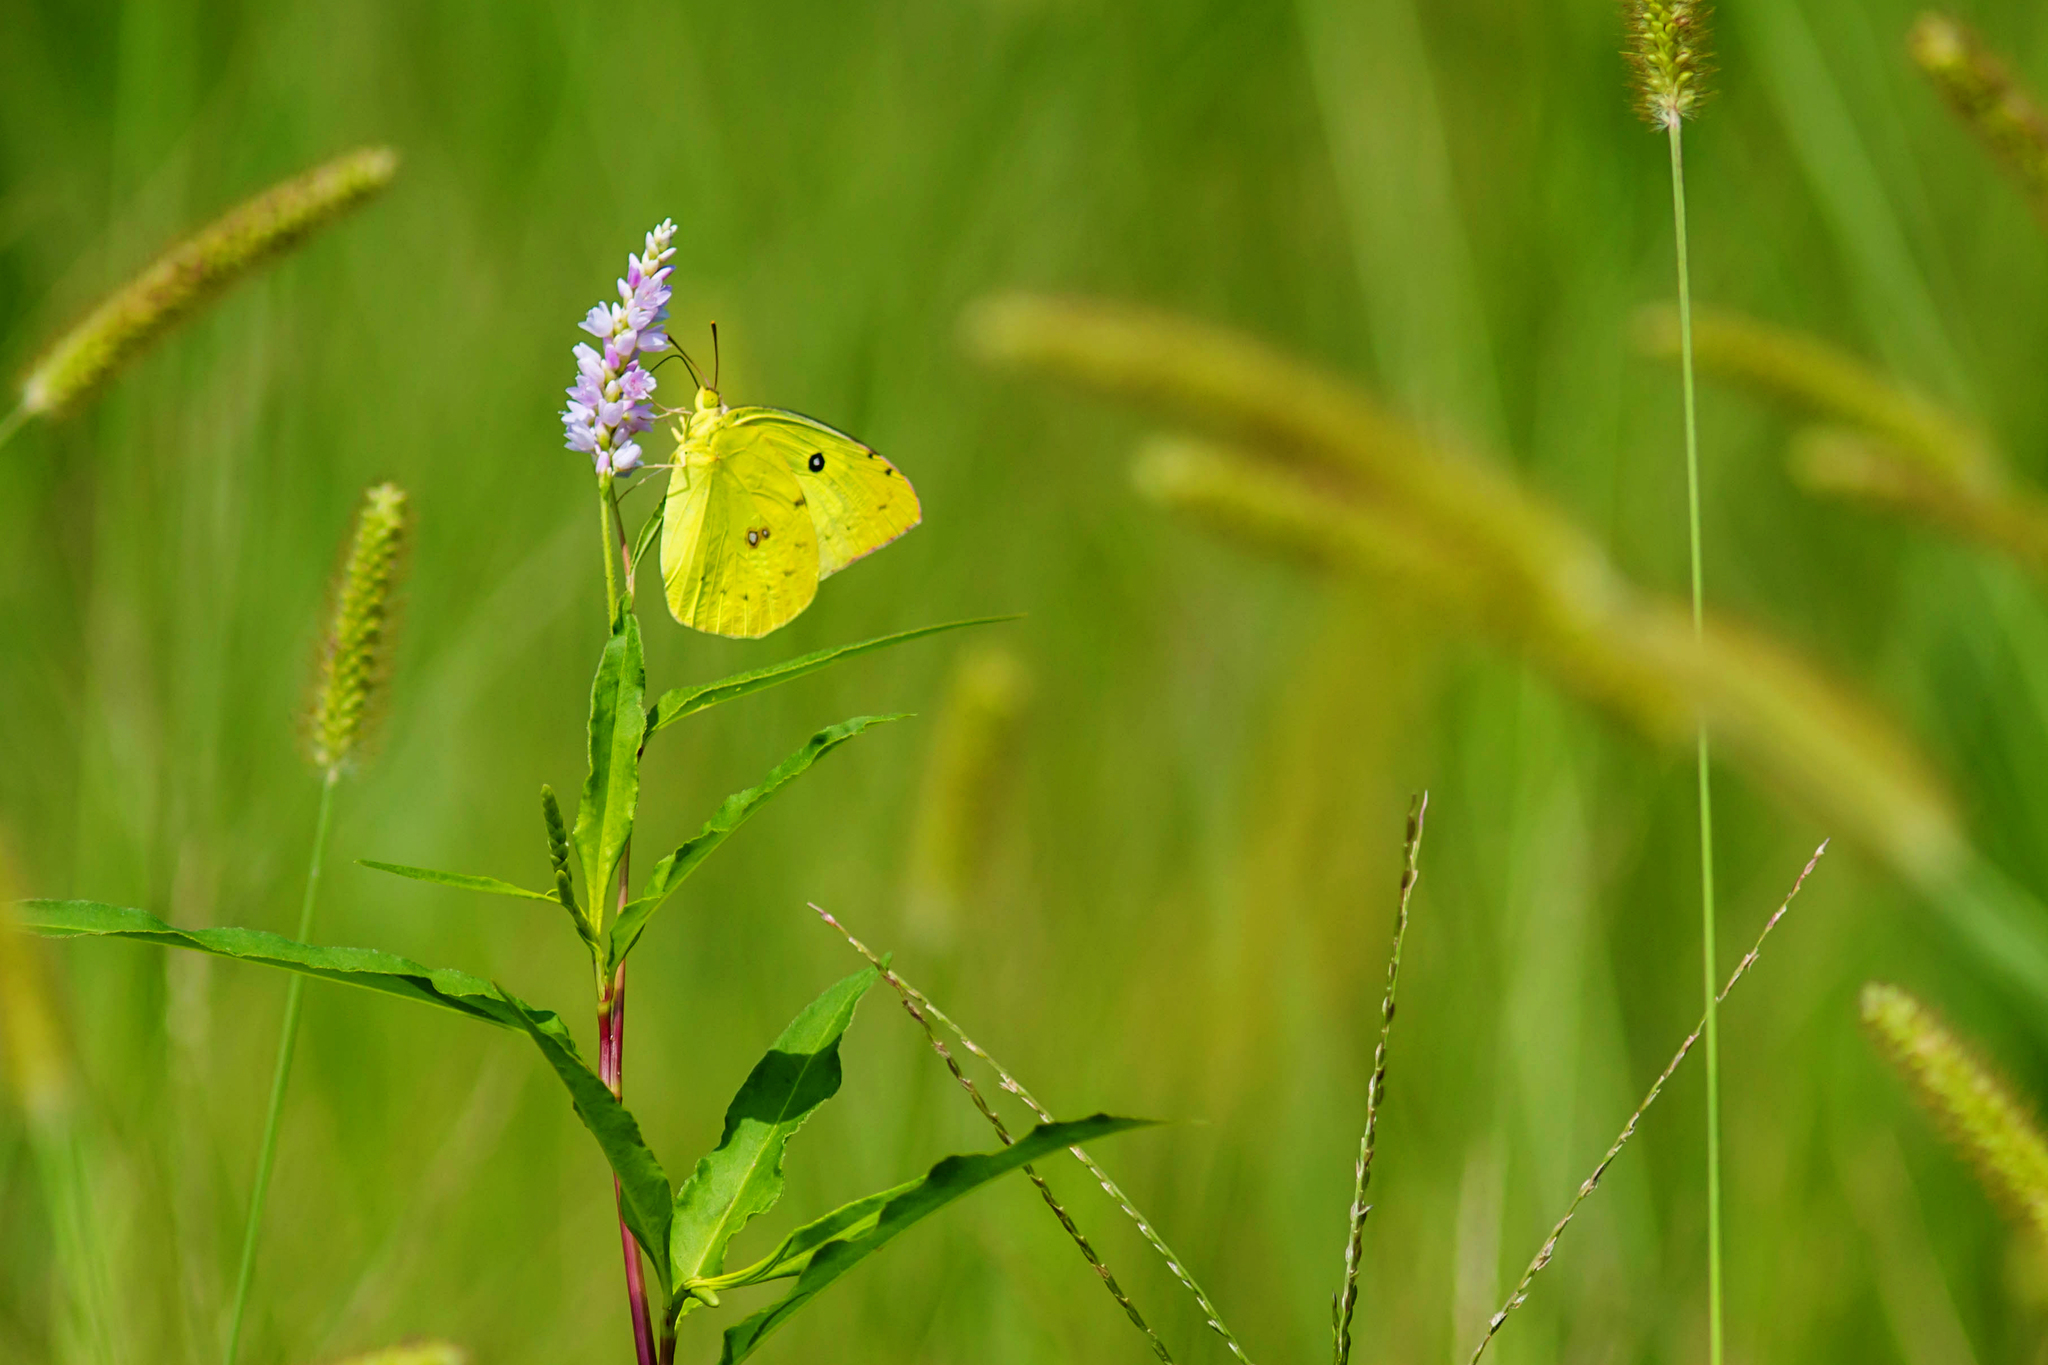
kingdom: Animalia
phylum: Arthropoda
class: Insecta
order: Lepidoptera
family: Pieridae
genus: Zerene
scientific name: Zerene cesonia
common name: Southern dogface
